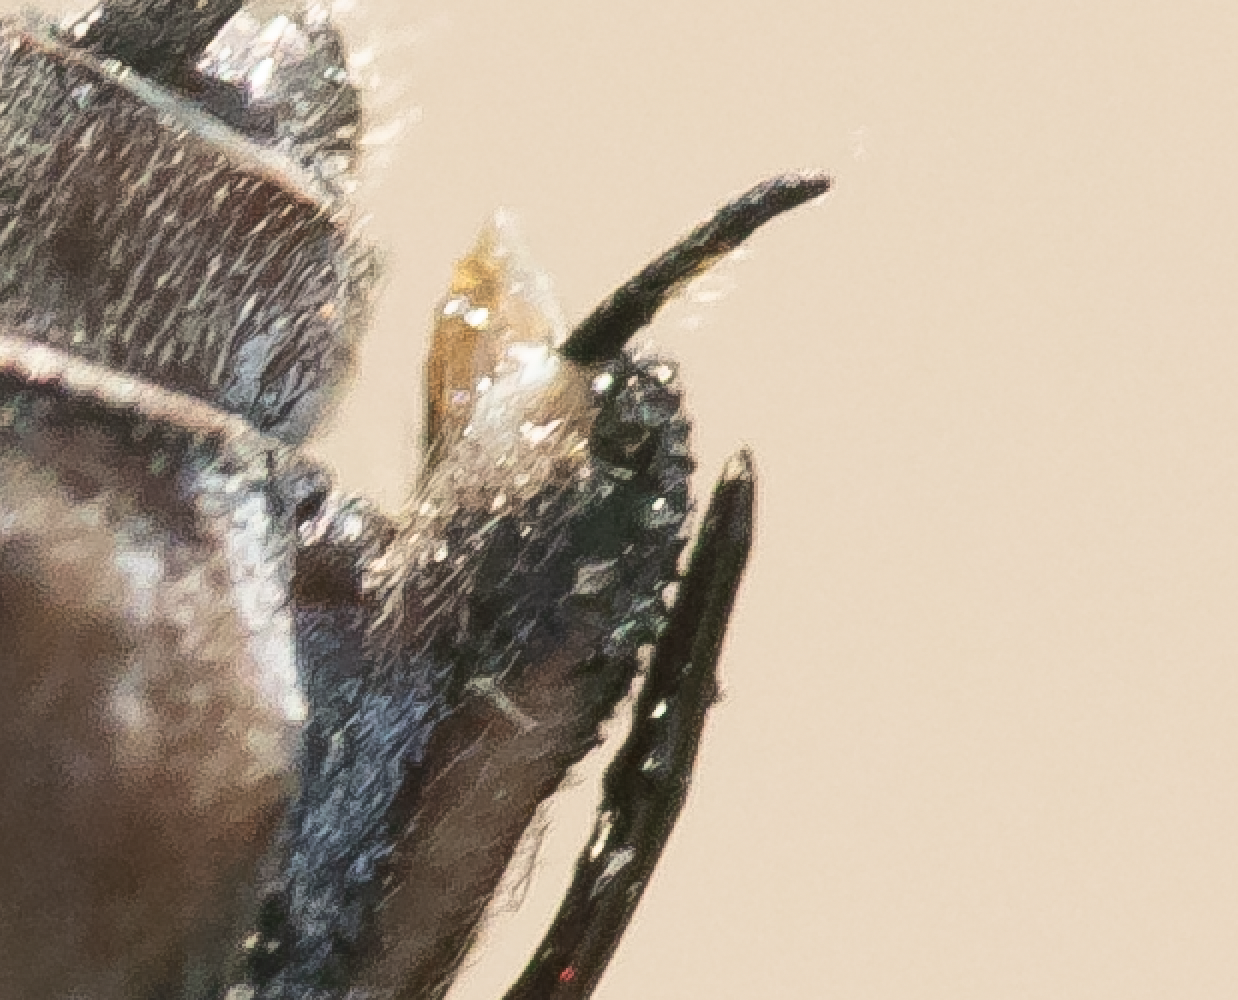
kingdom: Animalia
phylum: Arthropoda
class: Insecta
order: Odonata
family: Lestidae
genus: Chalcolestes
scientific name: Chalcolestes viridis
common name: Green emerald damselfly
